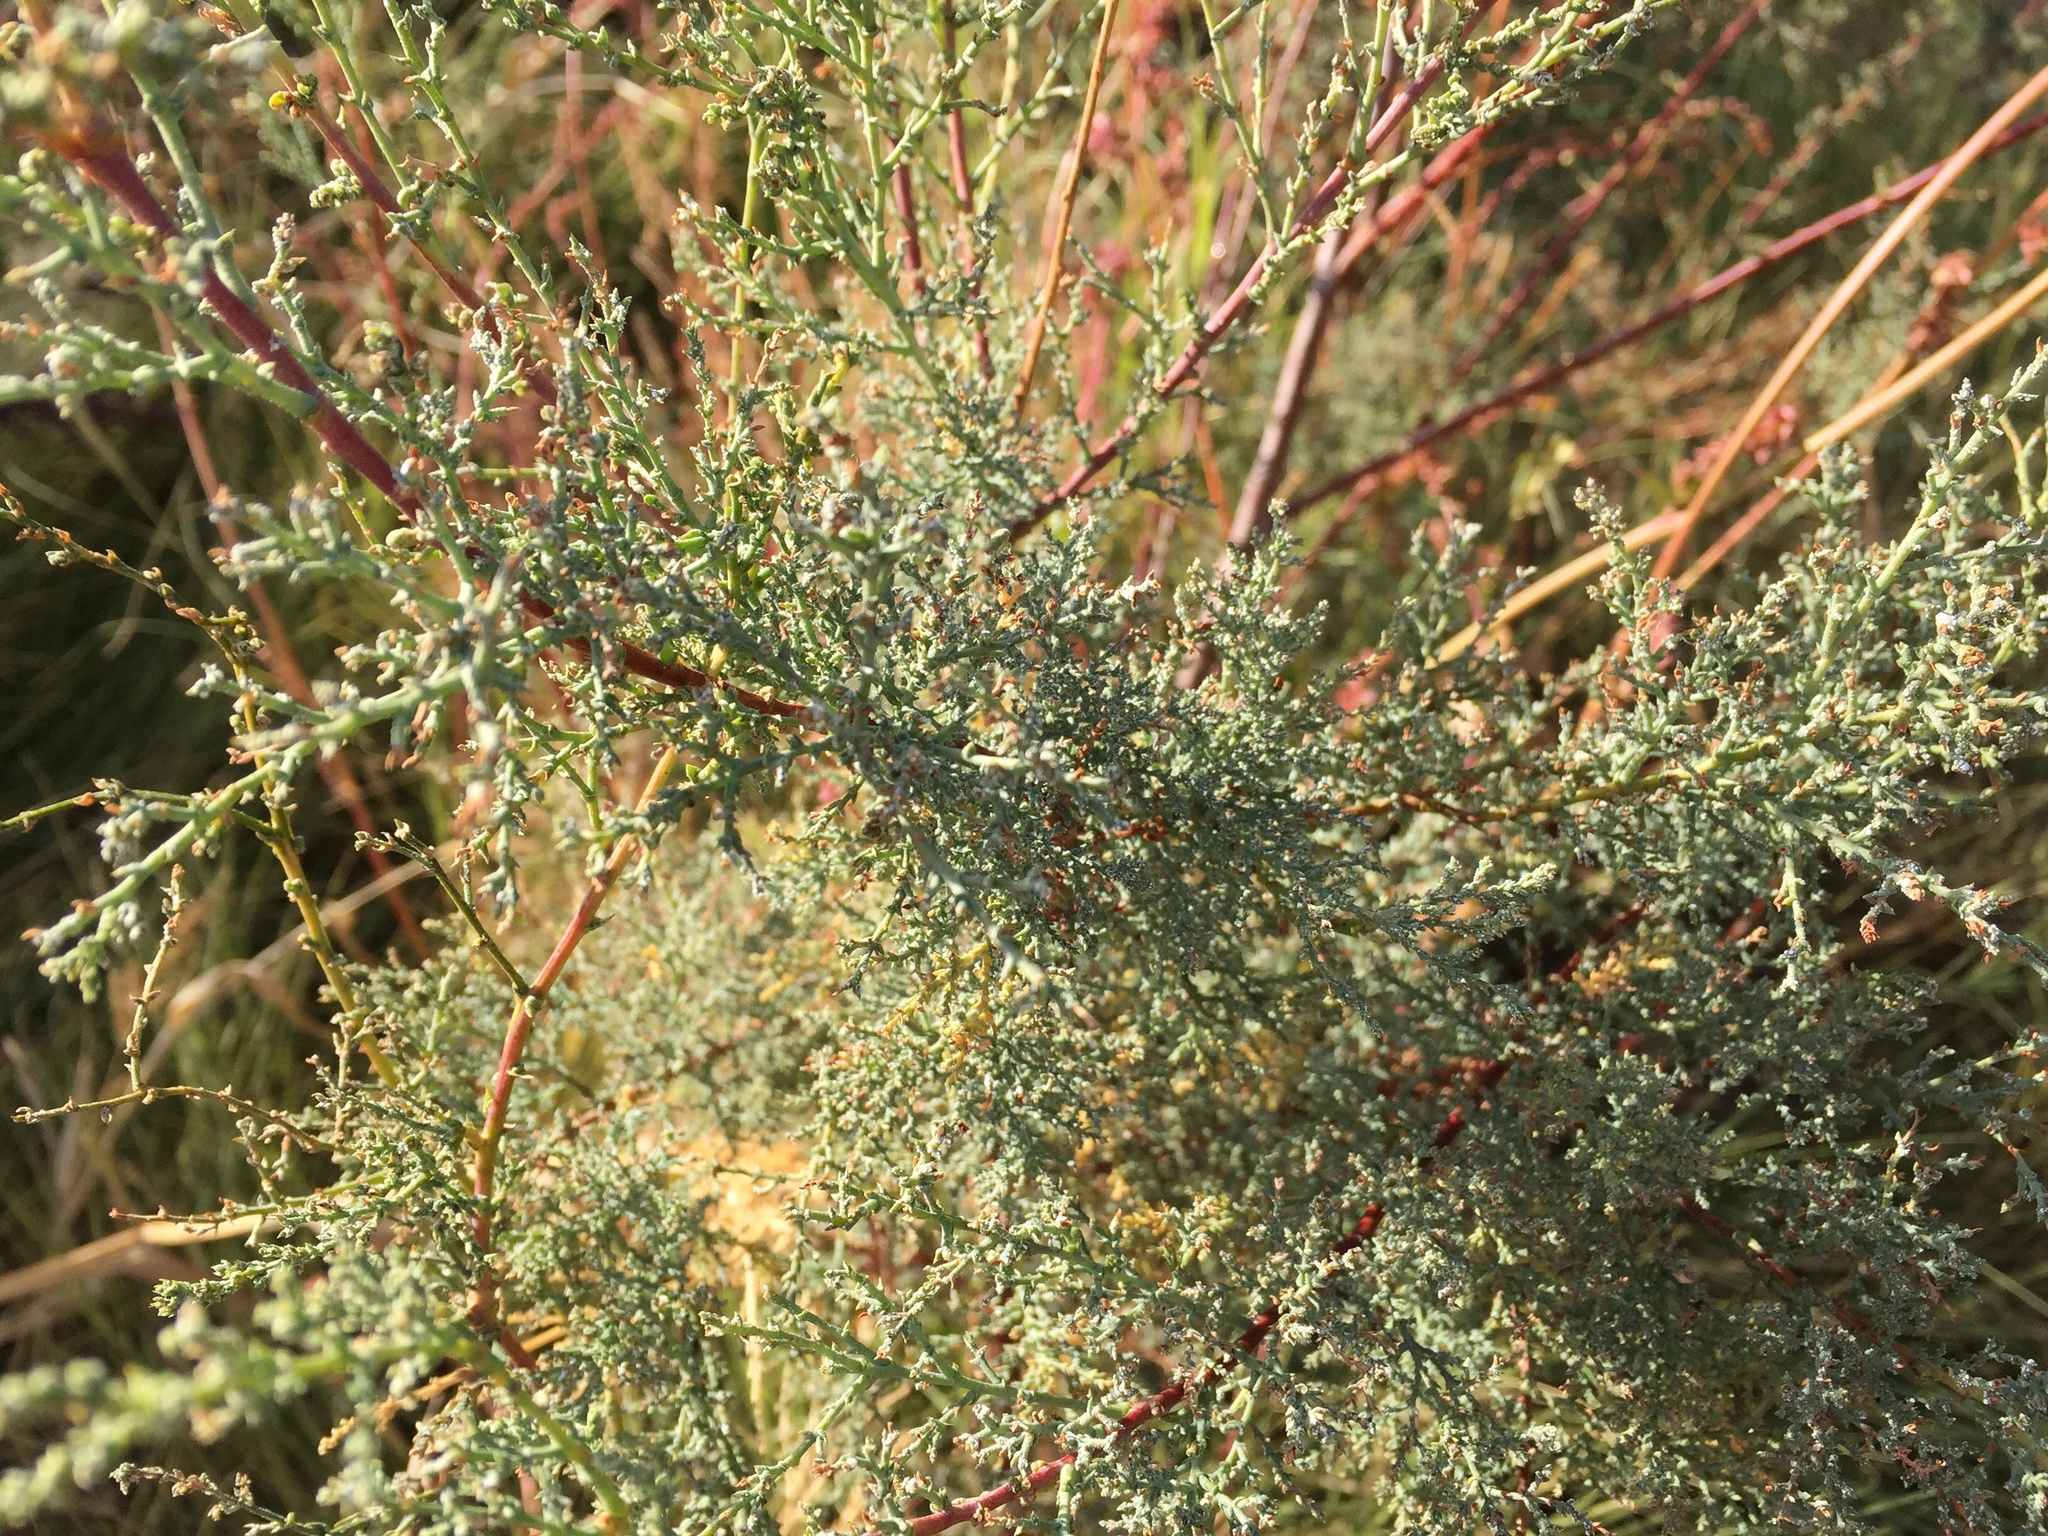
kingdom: Plantae
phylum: Tracheophyta
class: Magnoliopsida
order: Caryophyllales
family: Tamaricaceae
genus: Tamarix
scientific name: Tamarix ramosissima
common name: Pink tamarisk
